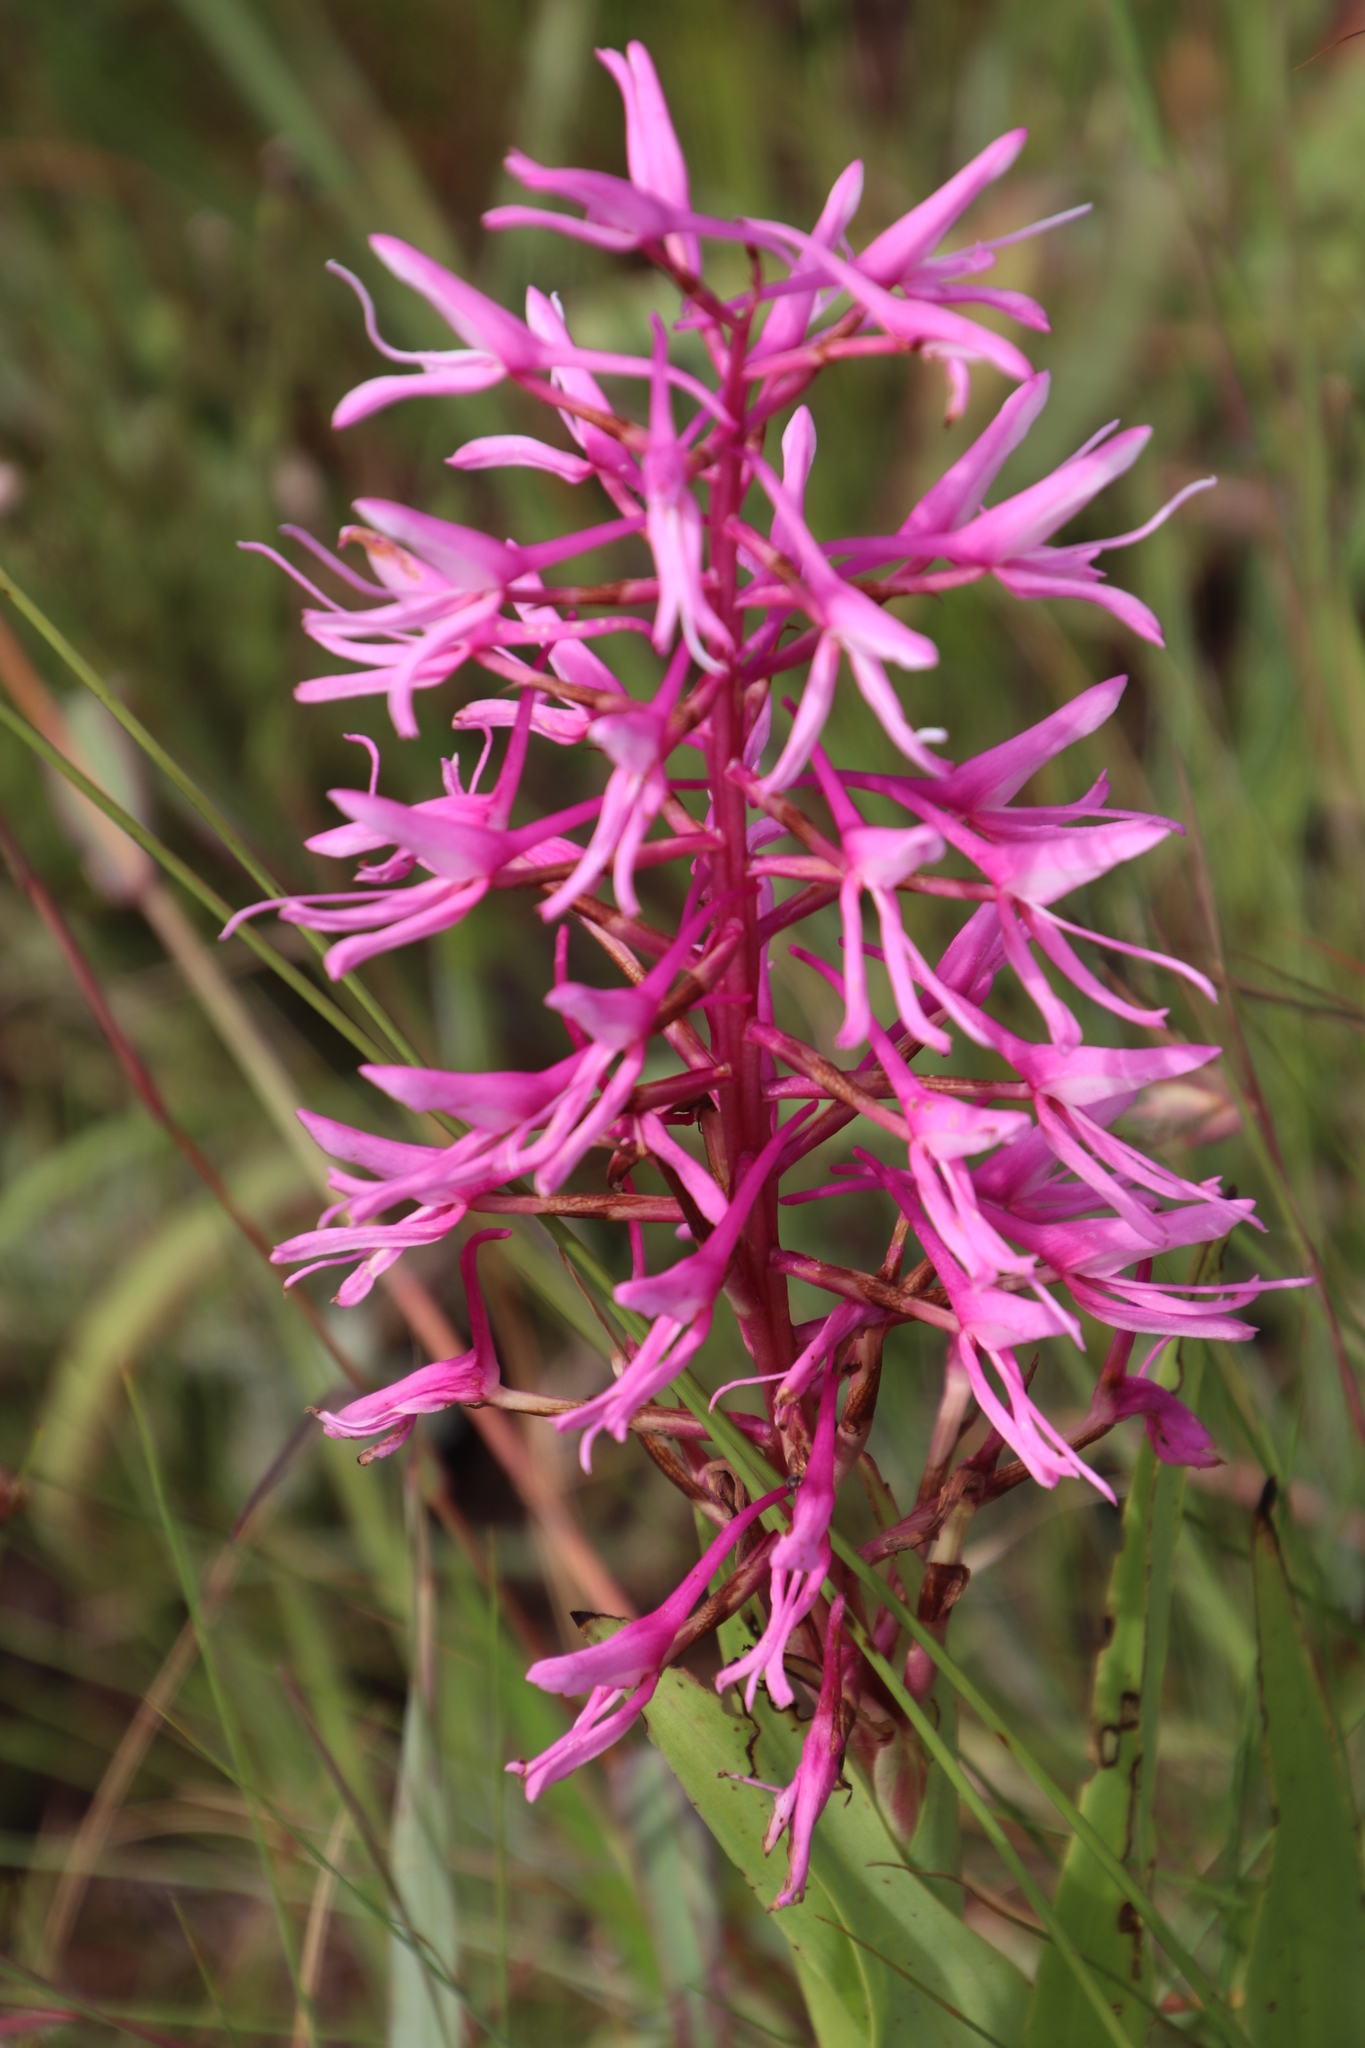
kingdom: Plantae
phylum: Tracheophyta
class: Liliopsida
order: Asparagales
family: Orchidaceae
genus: Disa
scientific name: Disa nervosa
